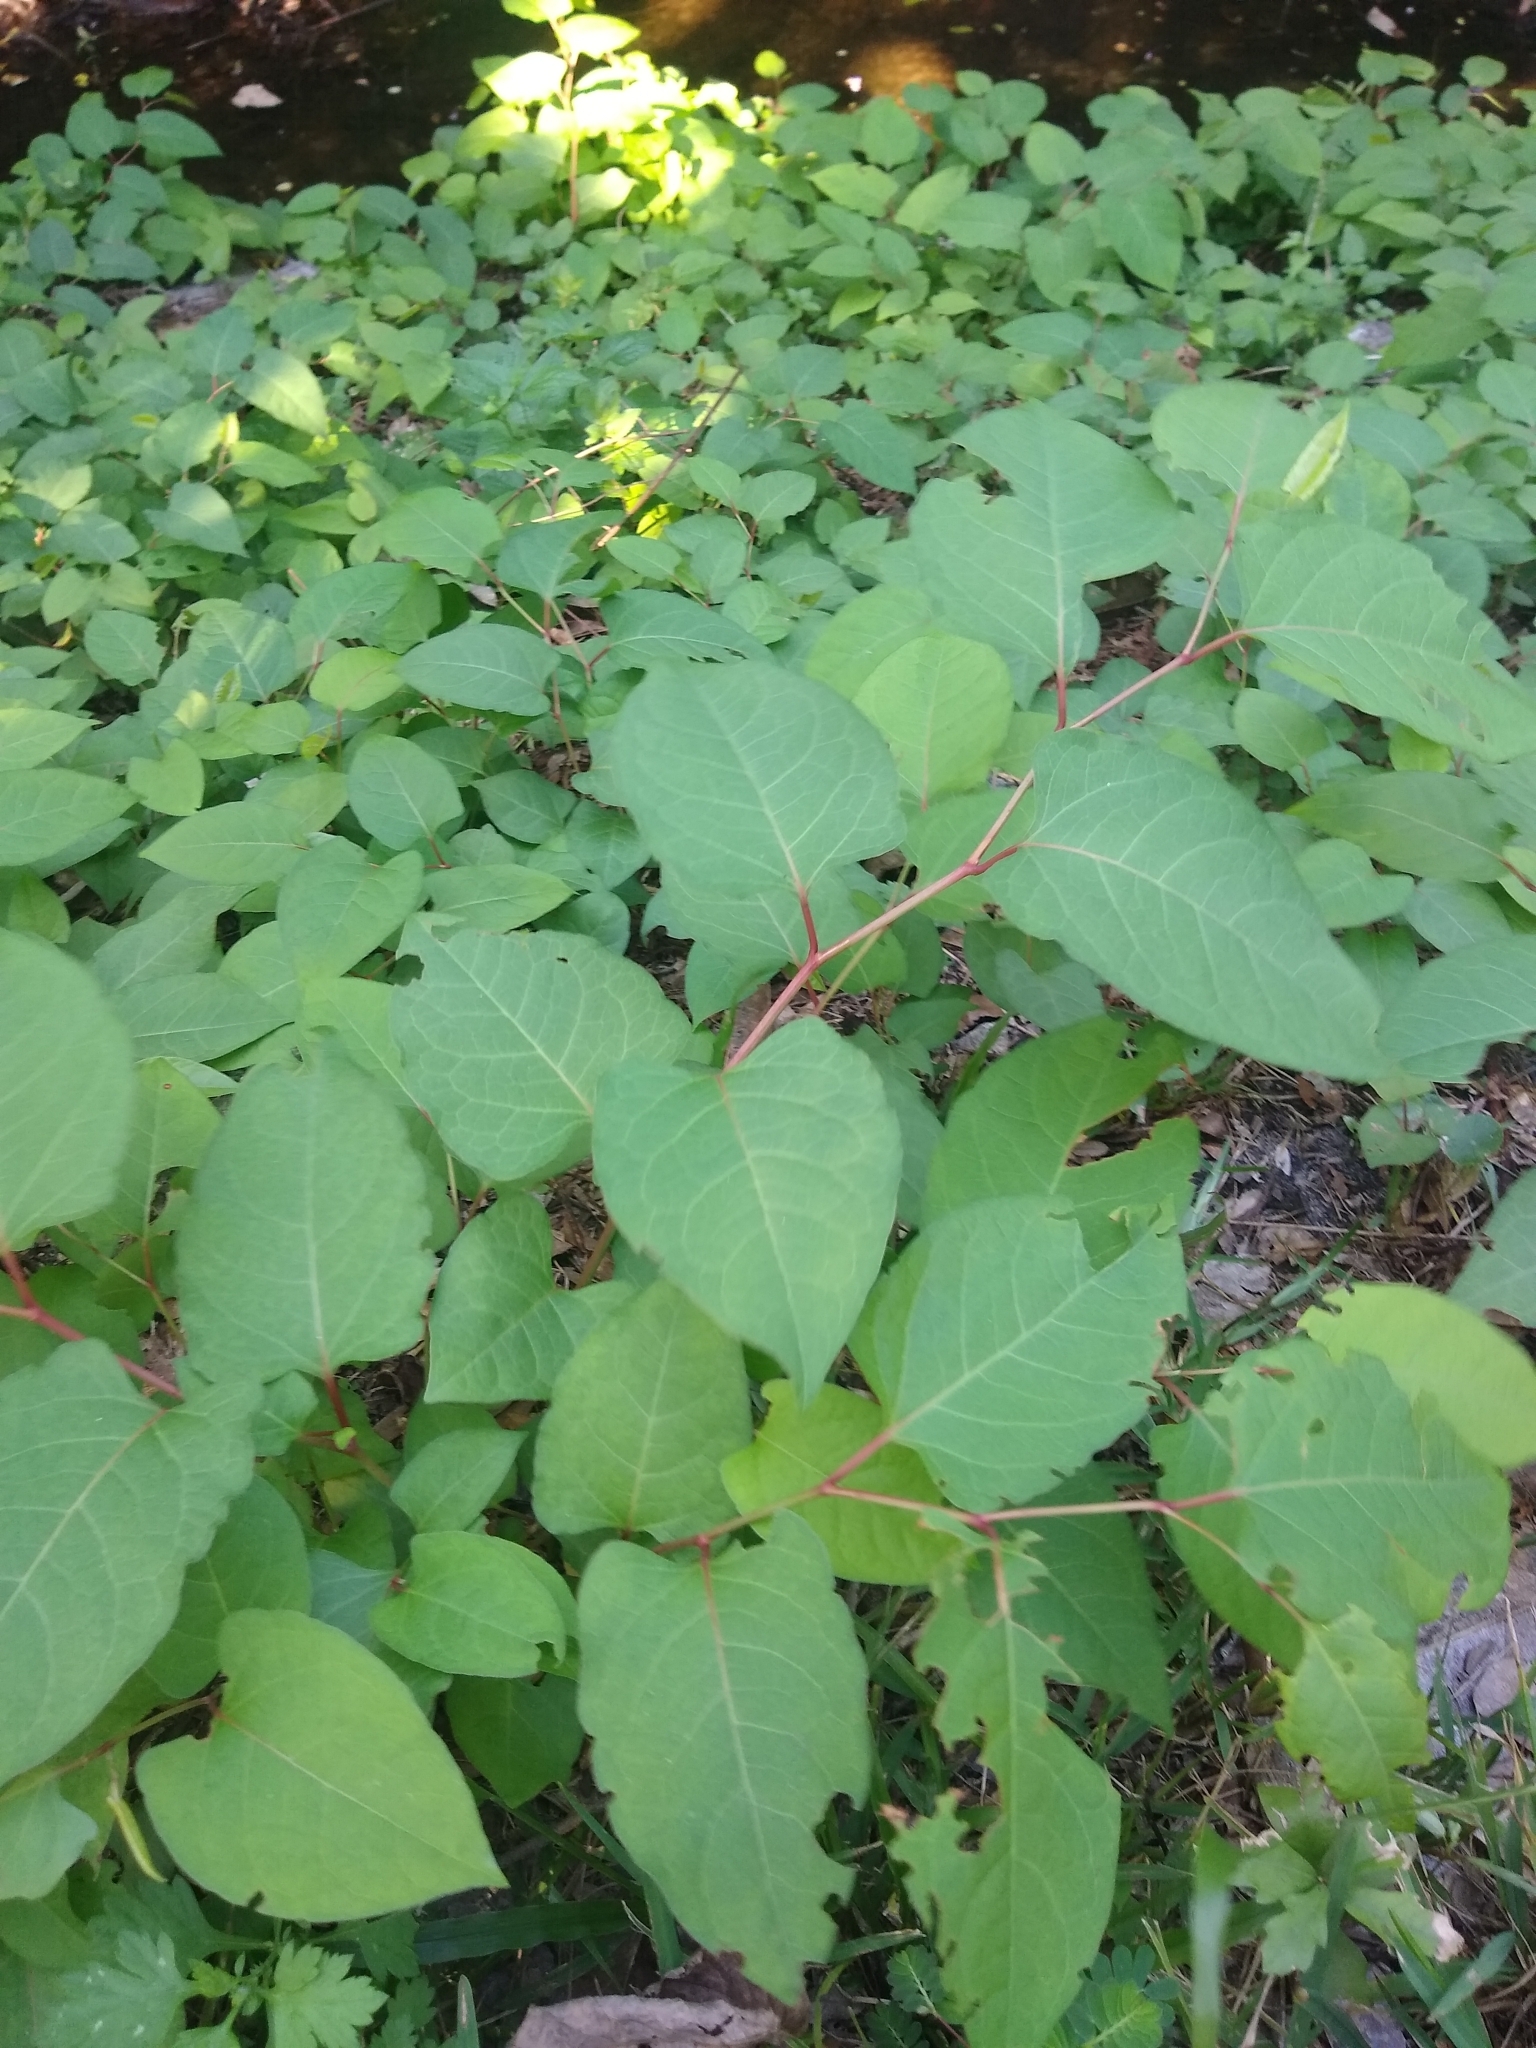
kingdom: Plantae
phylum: Tracheophyta
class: Magnoliopsida
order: Caryophyllales
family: Polygonaceae
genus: Reynoutria
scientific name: Reynoutria japonica
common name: Japanese knotweed
